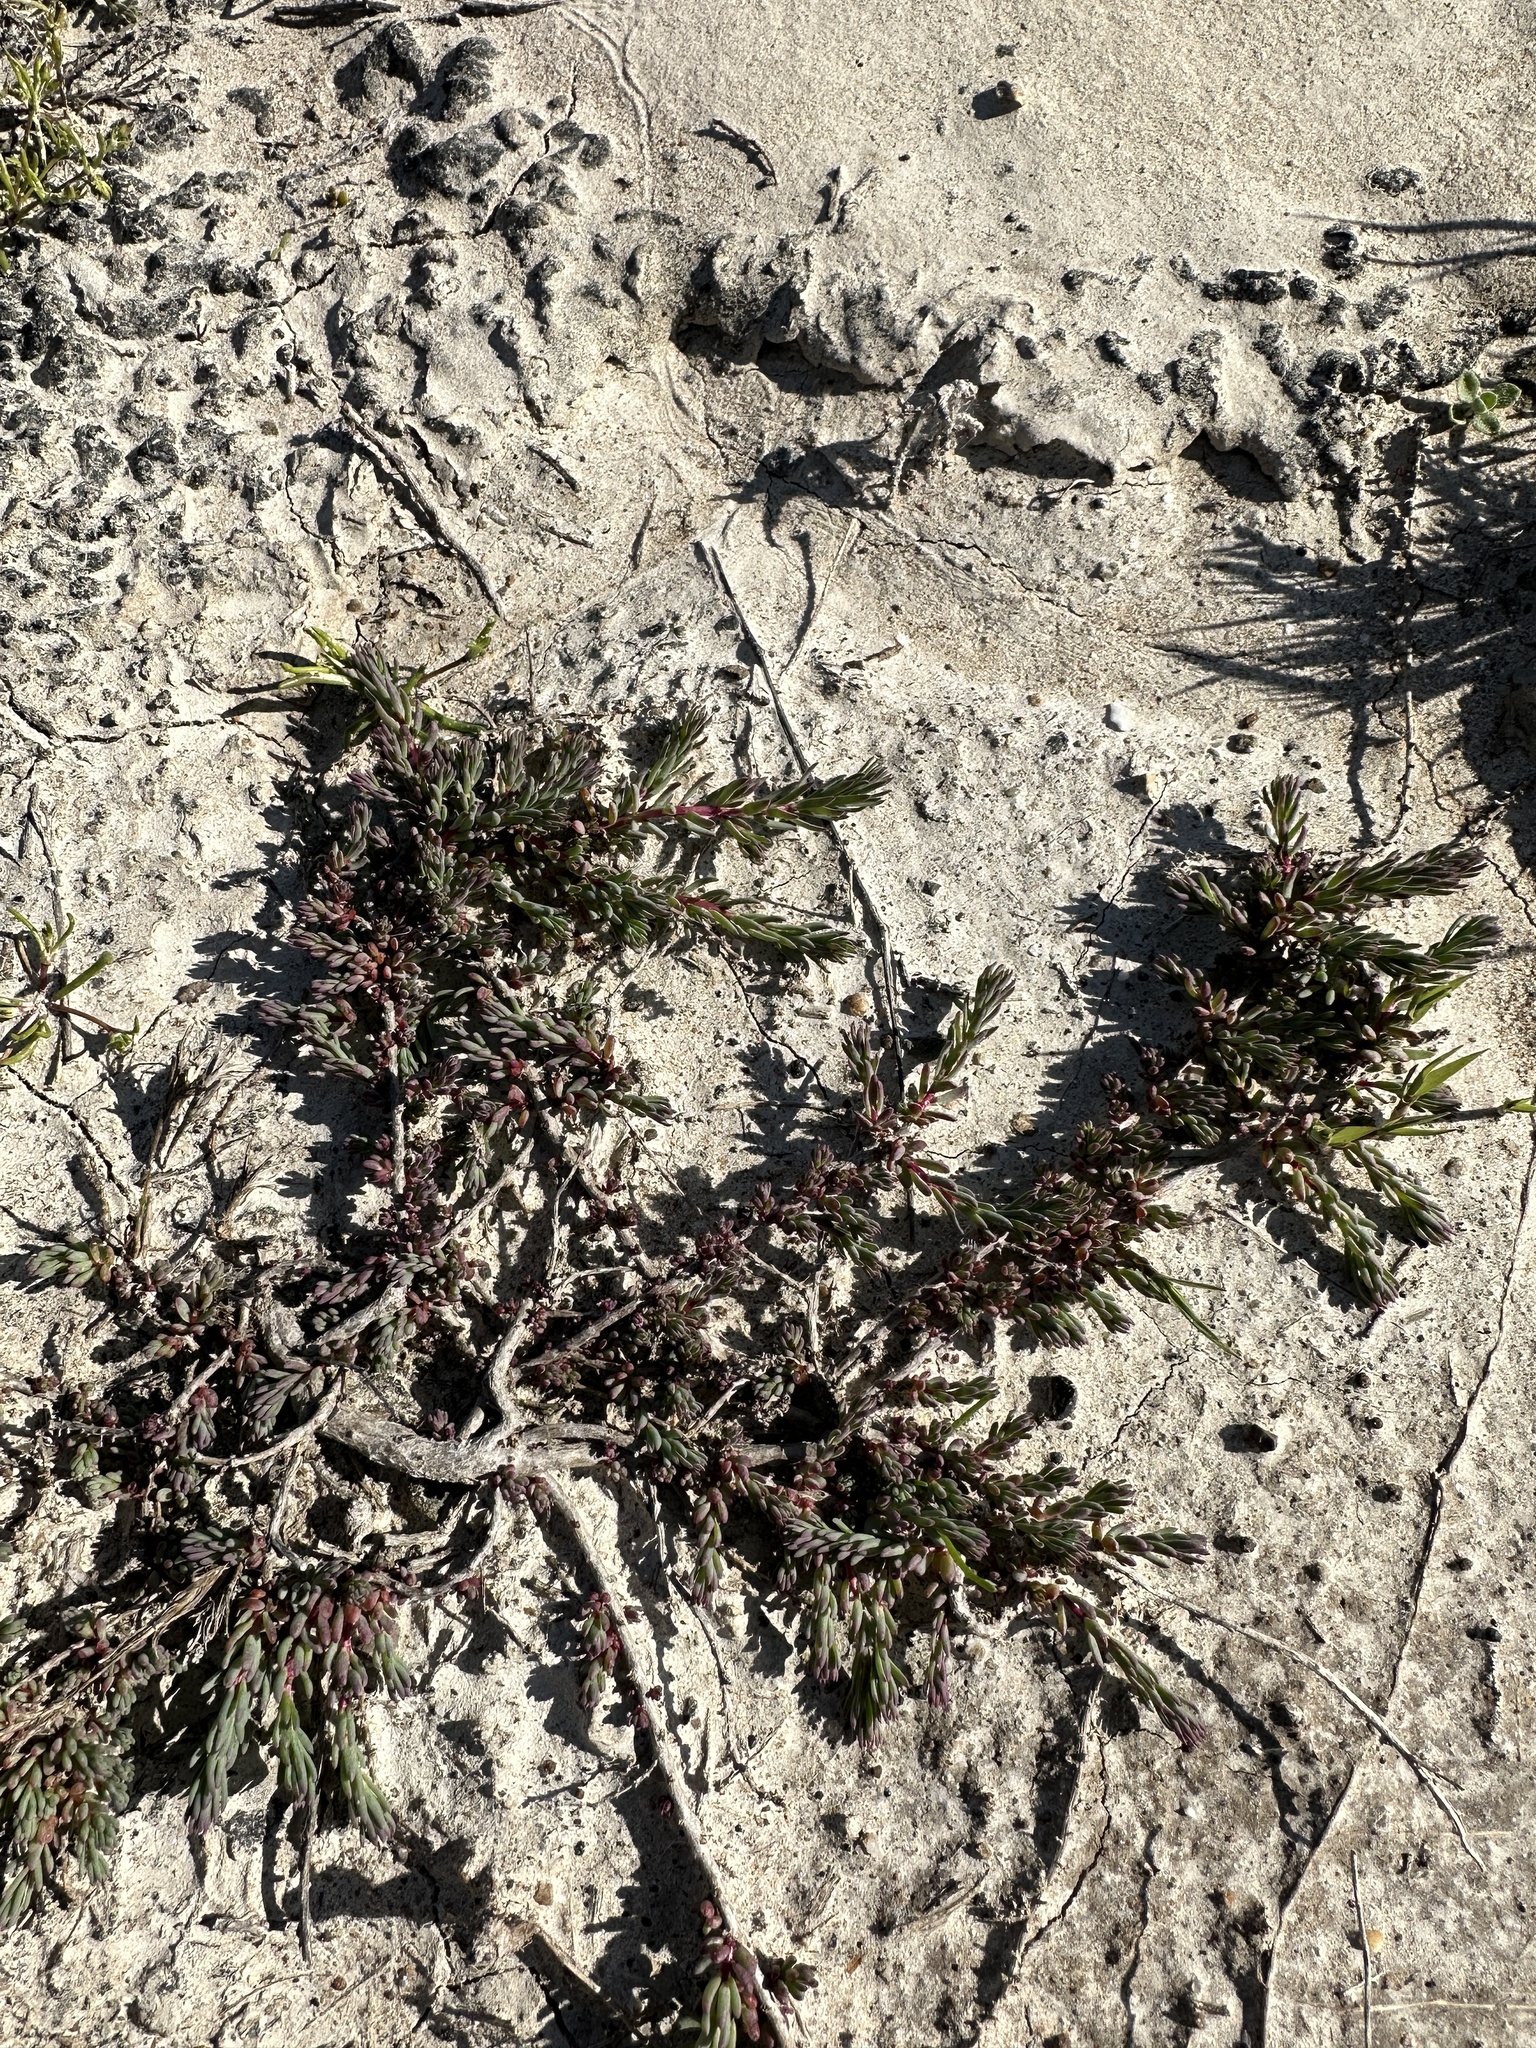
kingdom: Plantae
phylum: Tracheophyta
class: Magnoliopsida
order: Caryophyllales
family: Amaranthaceae
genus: Suaeda
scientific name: Suaeda nigra
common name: Bush seepweed
